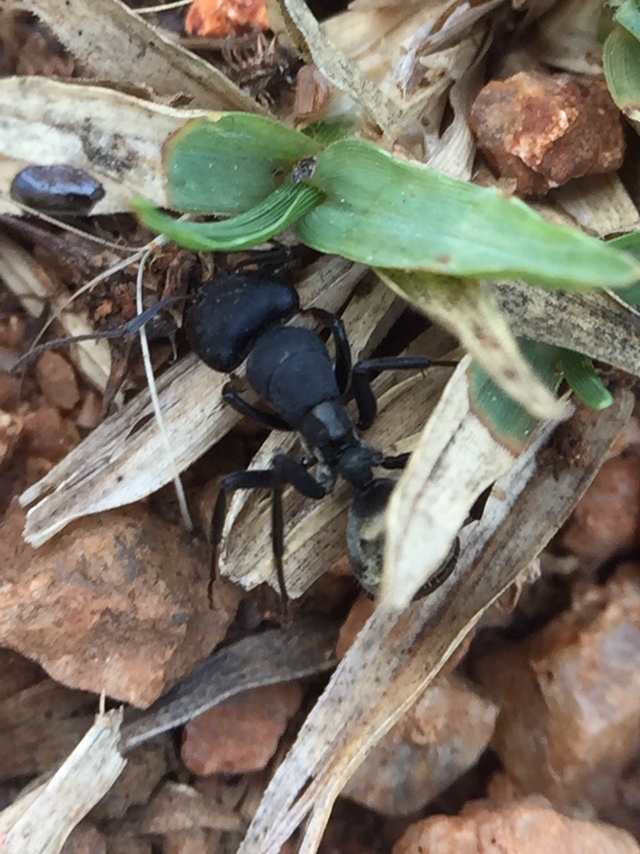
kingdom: Animalia
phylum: Arthropoda
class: Insecta
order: Hymenoptera
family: Formicidae
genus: Camponotus
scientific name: Camponotus sericeus
